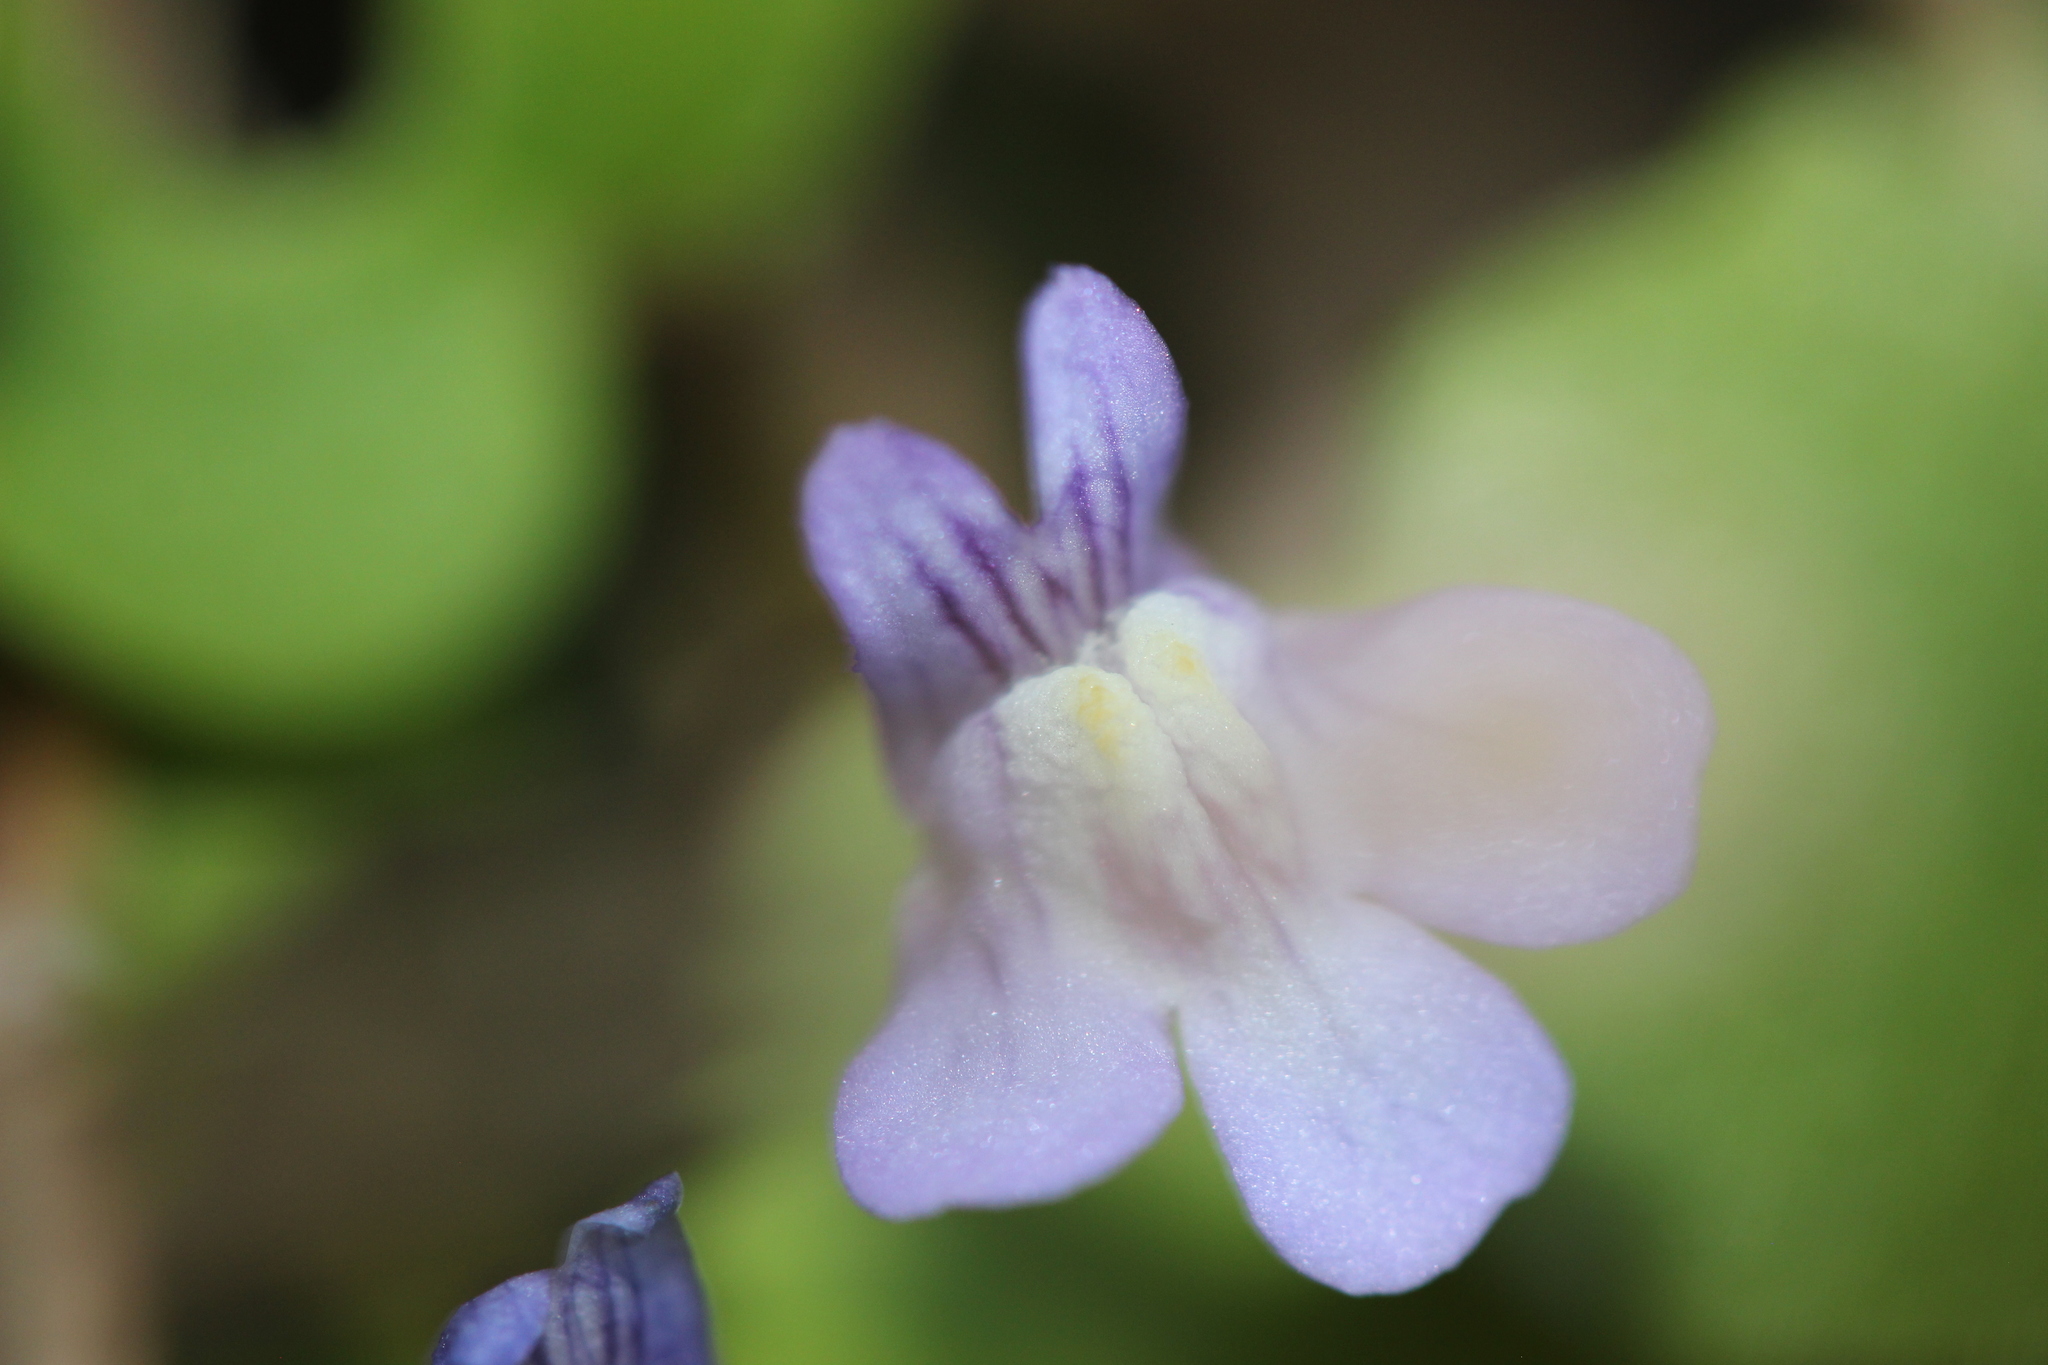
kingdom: Plantae
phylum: Tracheophyta
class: Magnoliopsida
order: Lamiales
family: Plantaginaceae
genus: Cymbalaria
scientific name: Cymbalaria muralis
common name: Ivy-leaved toadflax
